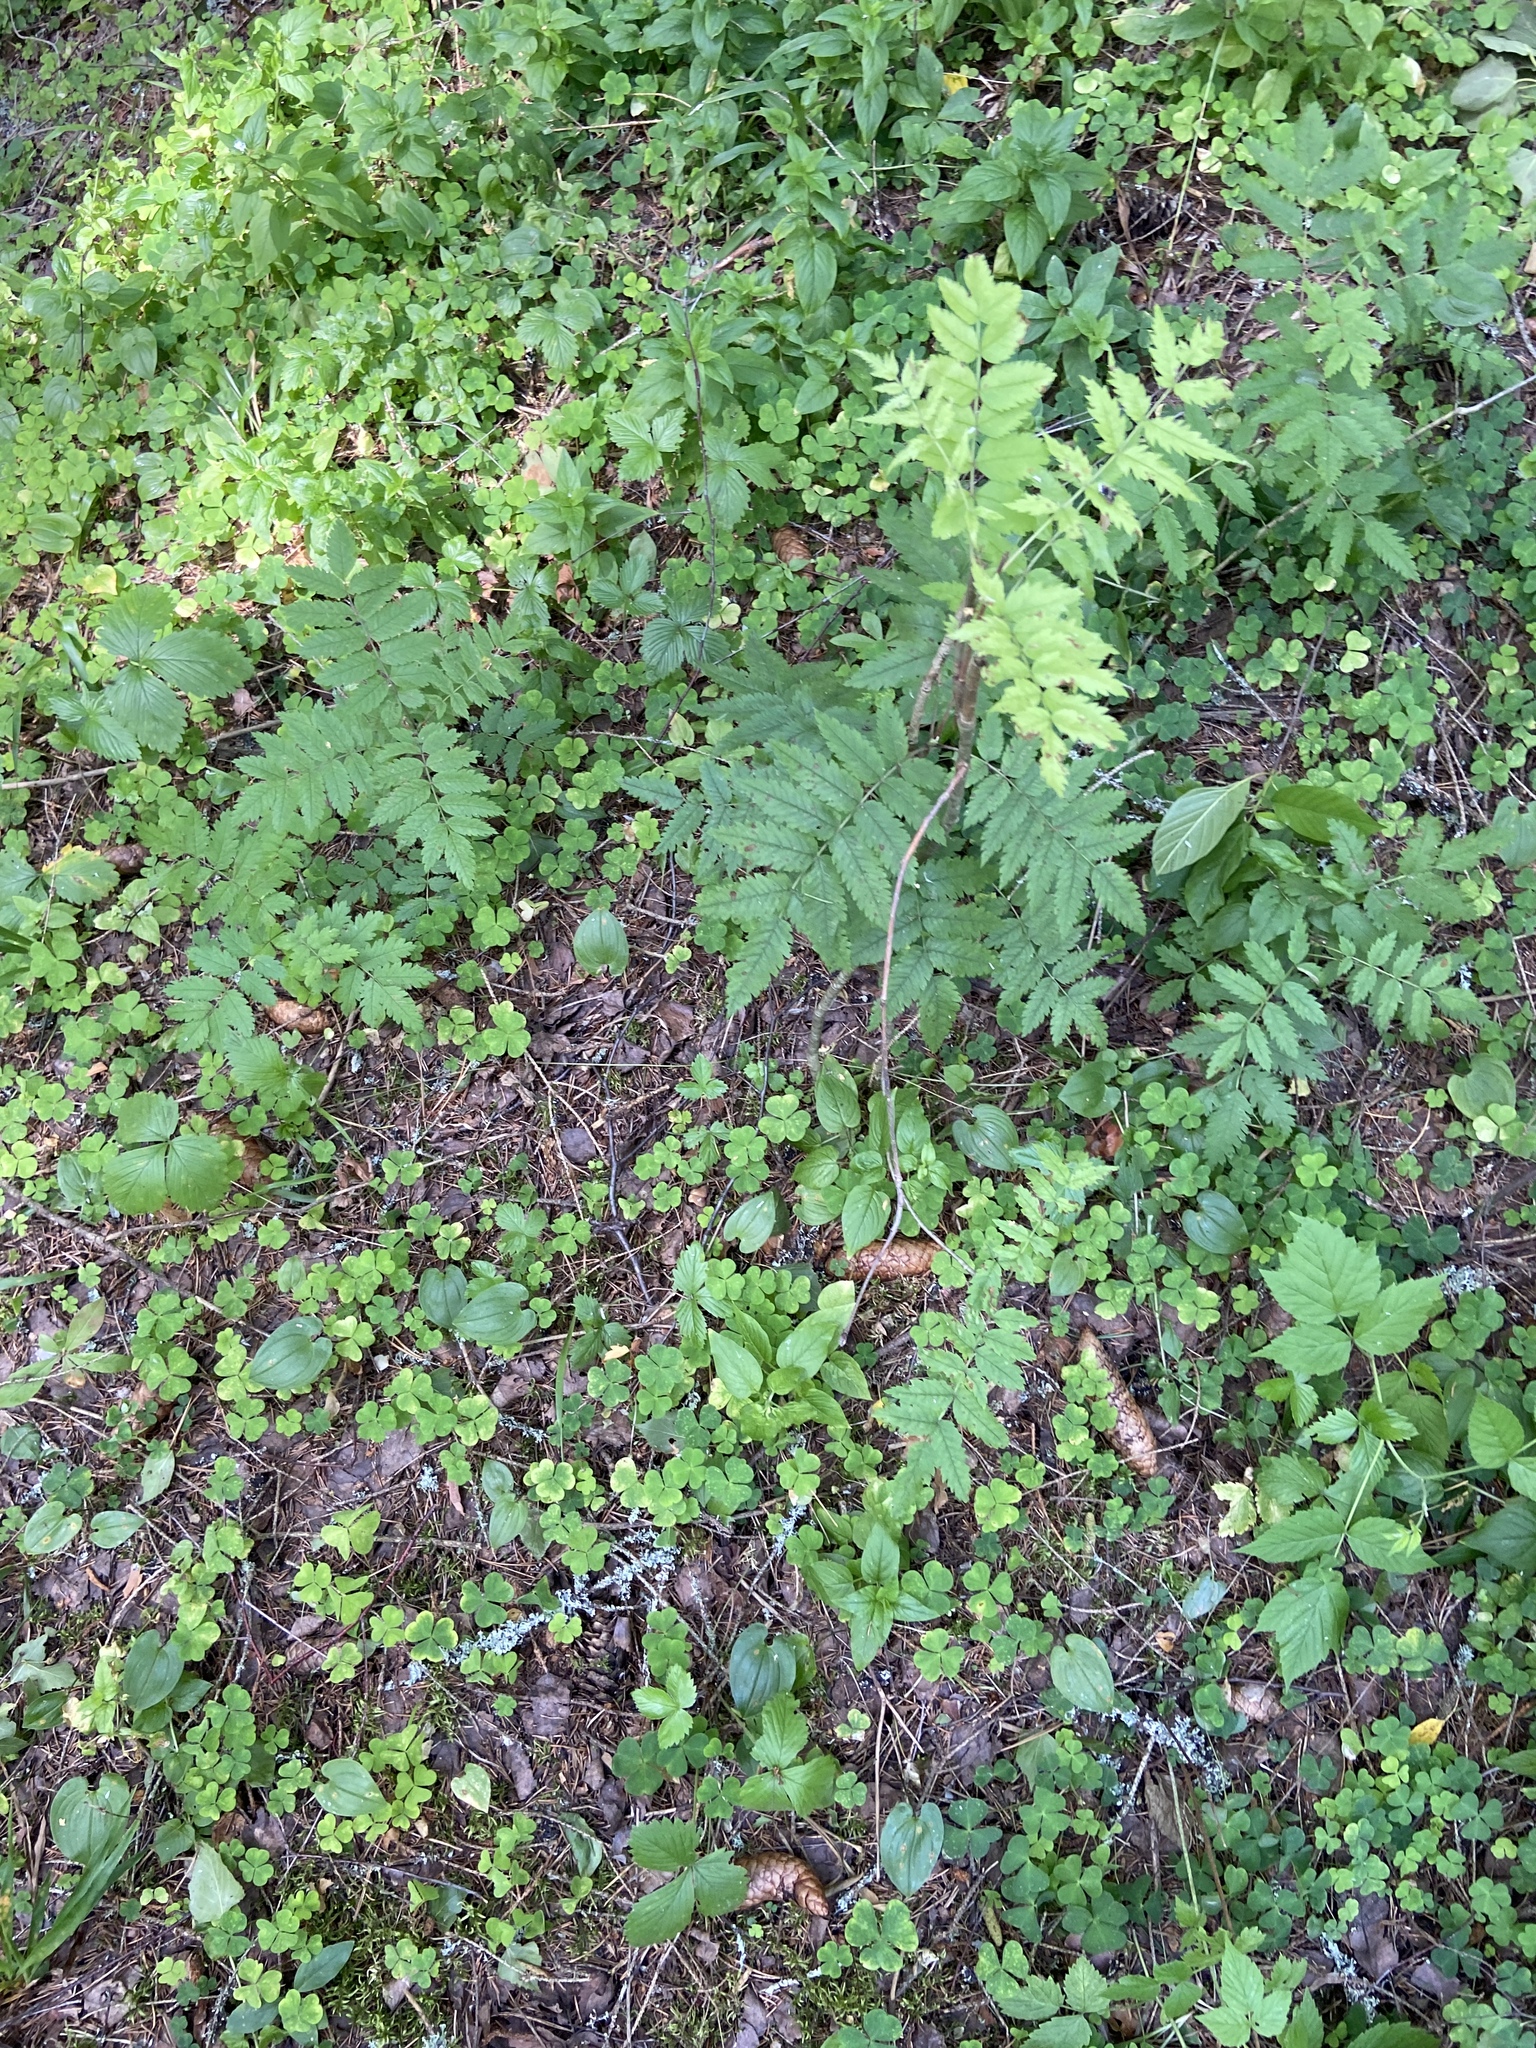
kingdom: Plantae
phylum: Tracheophyta
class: Magnoliopsida
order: Rosales
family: Rosaceae
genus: Sorbus
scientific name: Sorbus aucuparia
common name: Rowan
